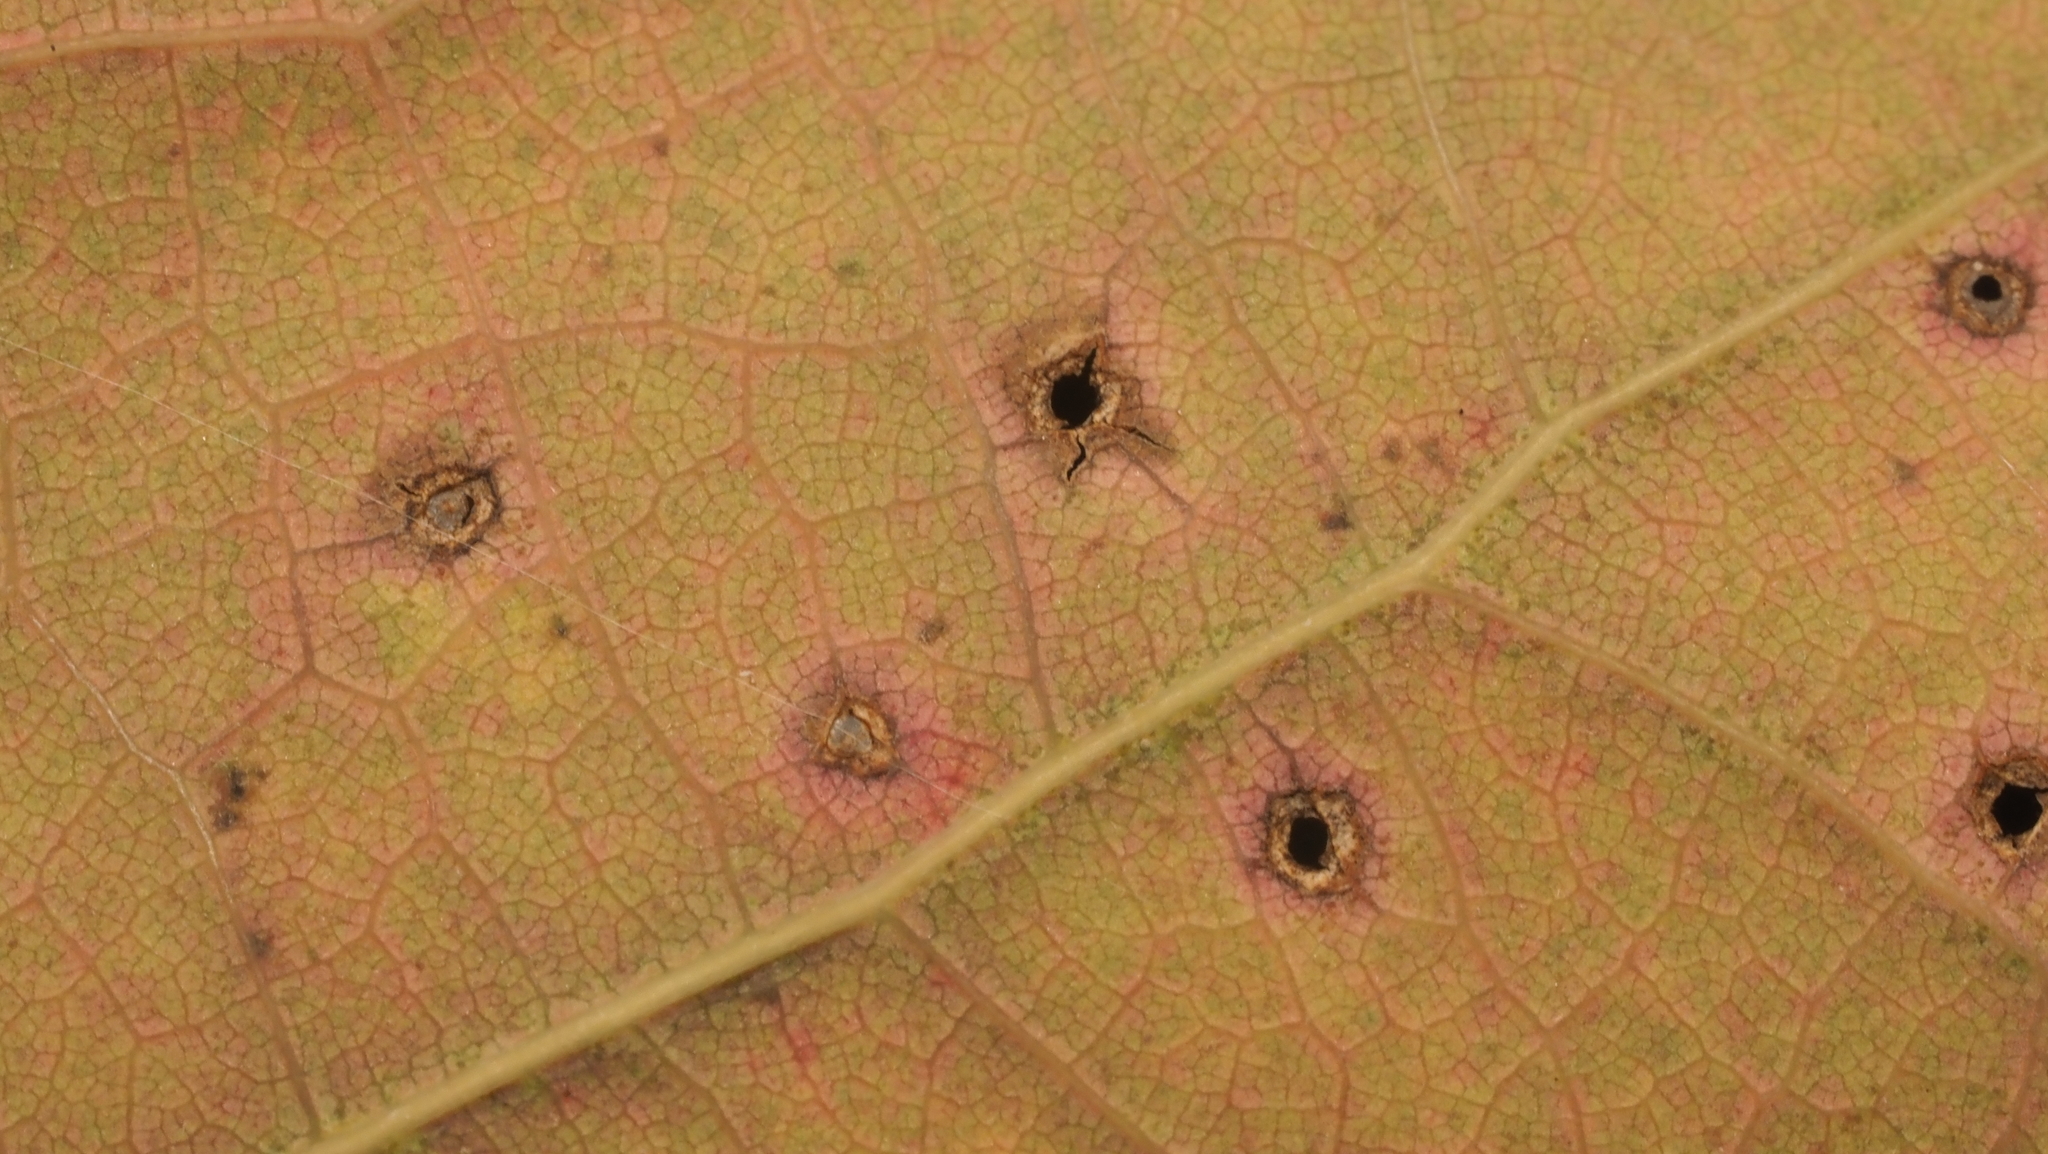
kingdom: Animalia
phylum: Arthropoda
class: Insecta
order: Hymenoptera
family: Cynipidae
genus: Neuroterus
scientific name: Neuroterus
